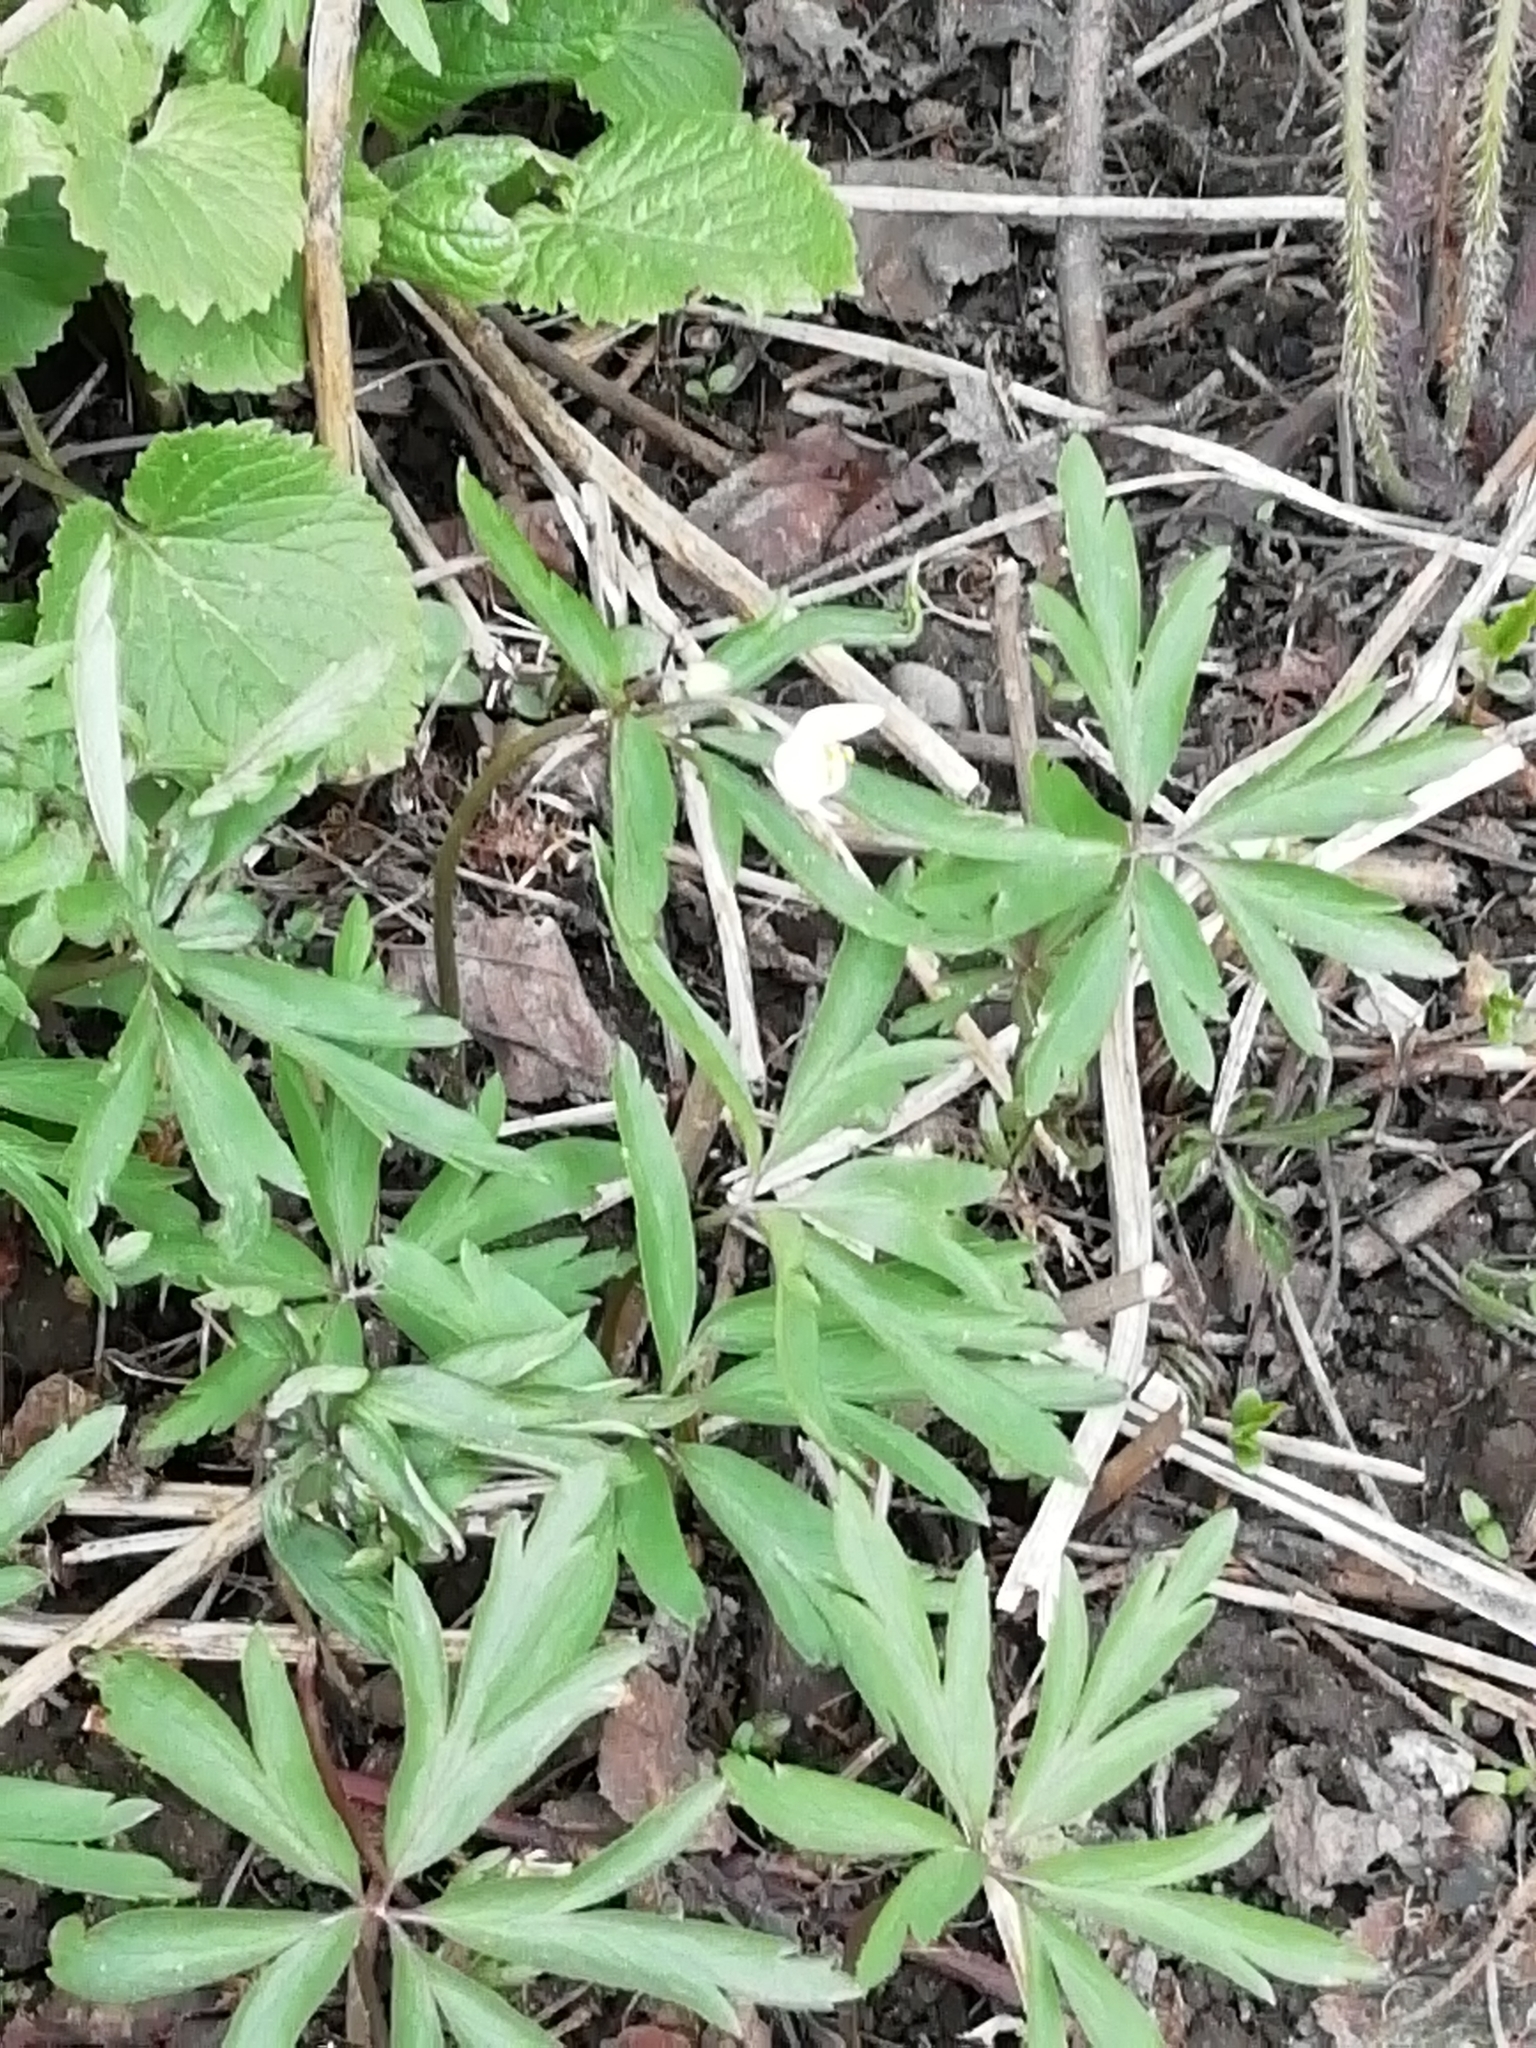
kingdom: Plantae
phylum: Tracheophyta
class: Magnoliopsida
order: Ranunculales
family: Ranunculaceae
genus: Anemone
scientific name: Anemone caerulea
